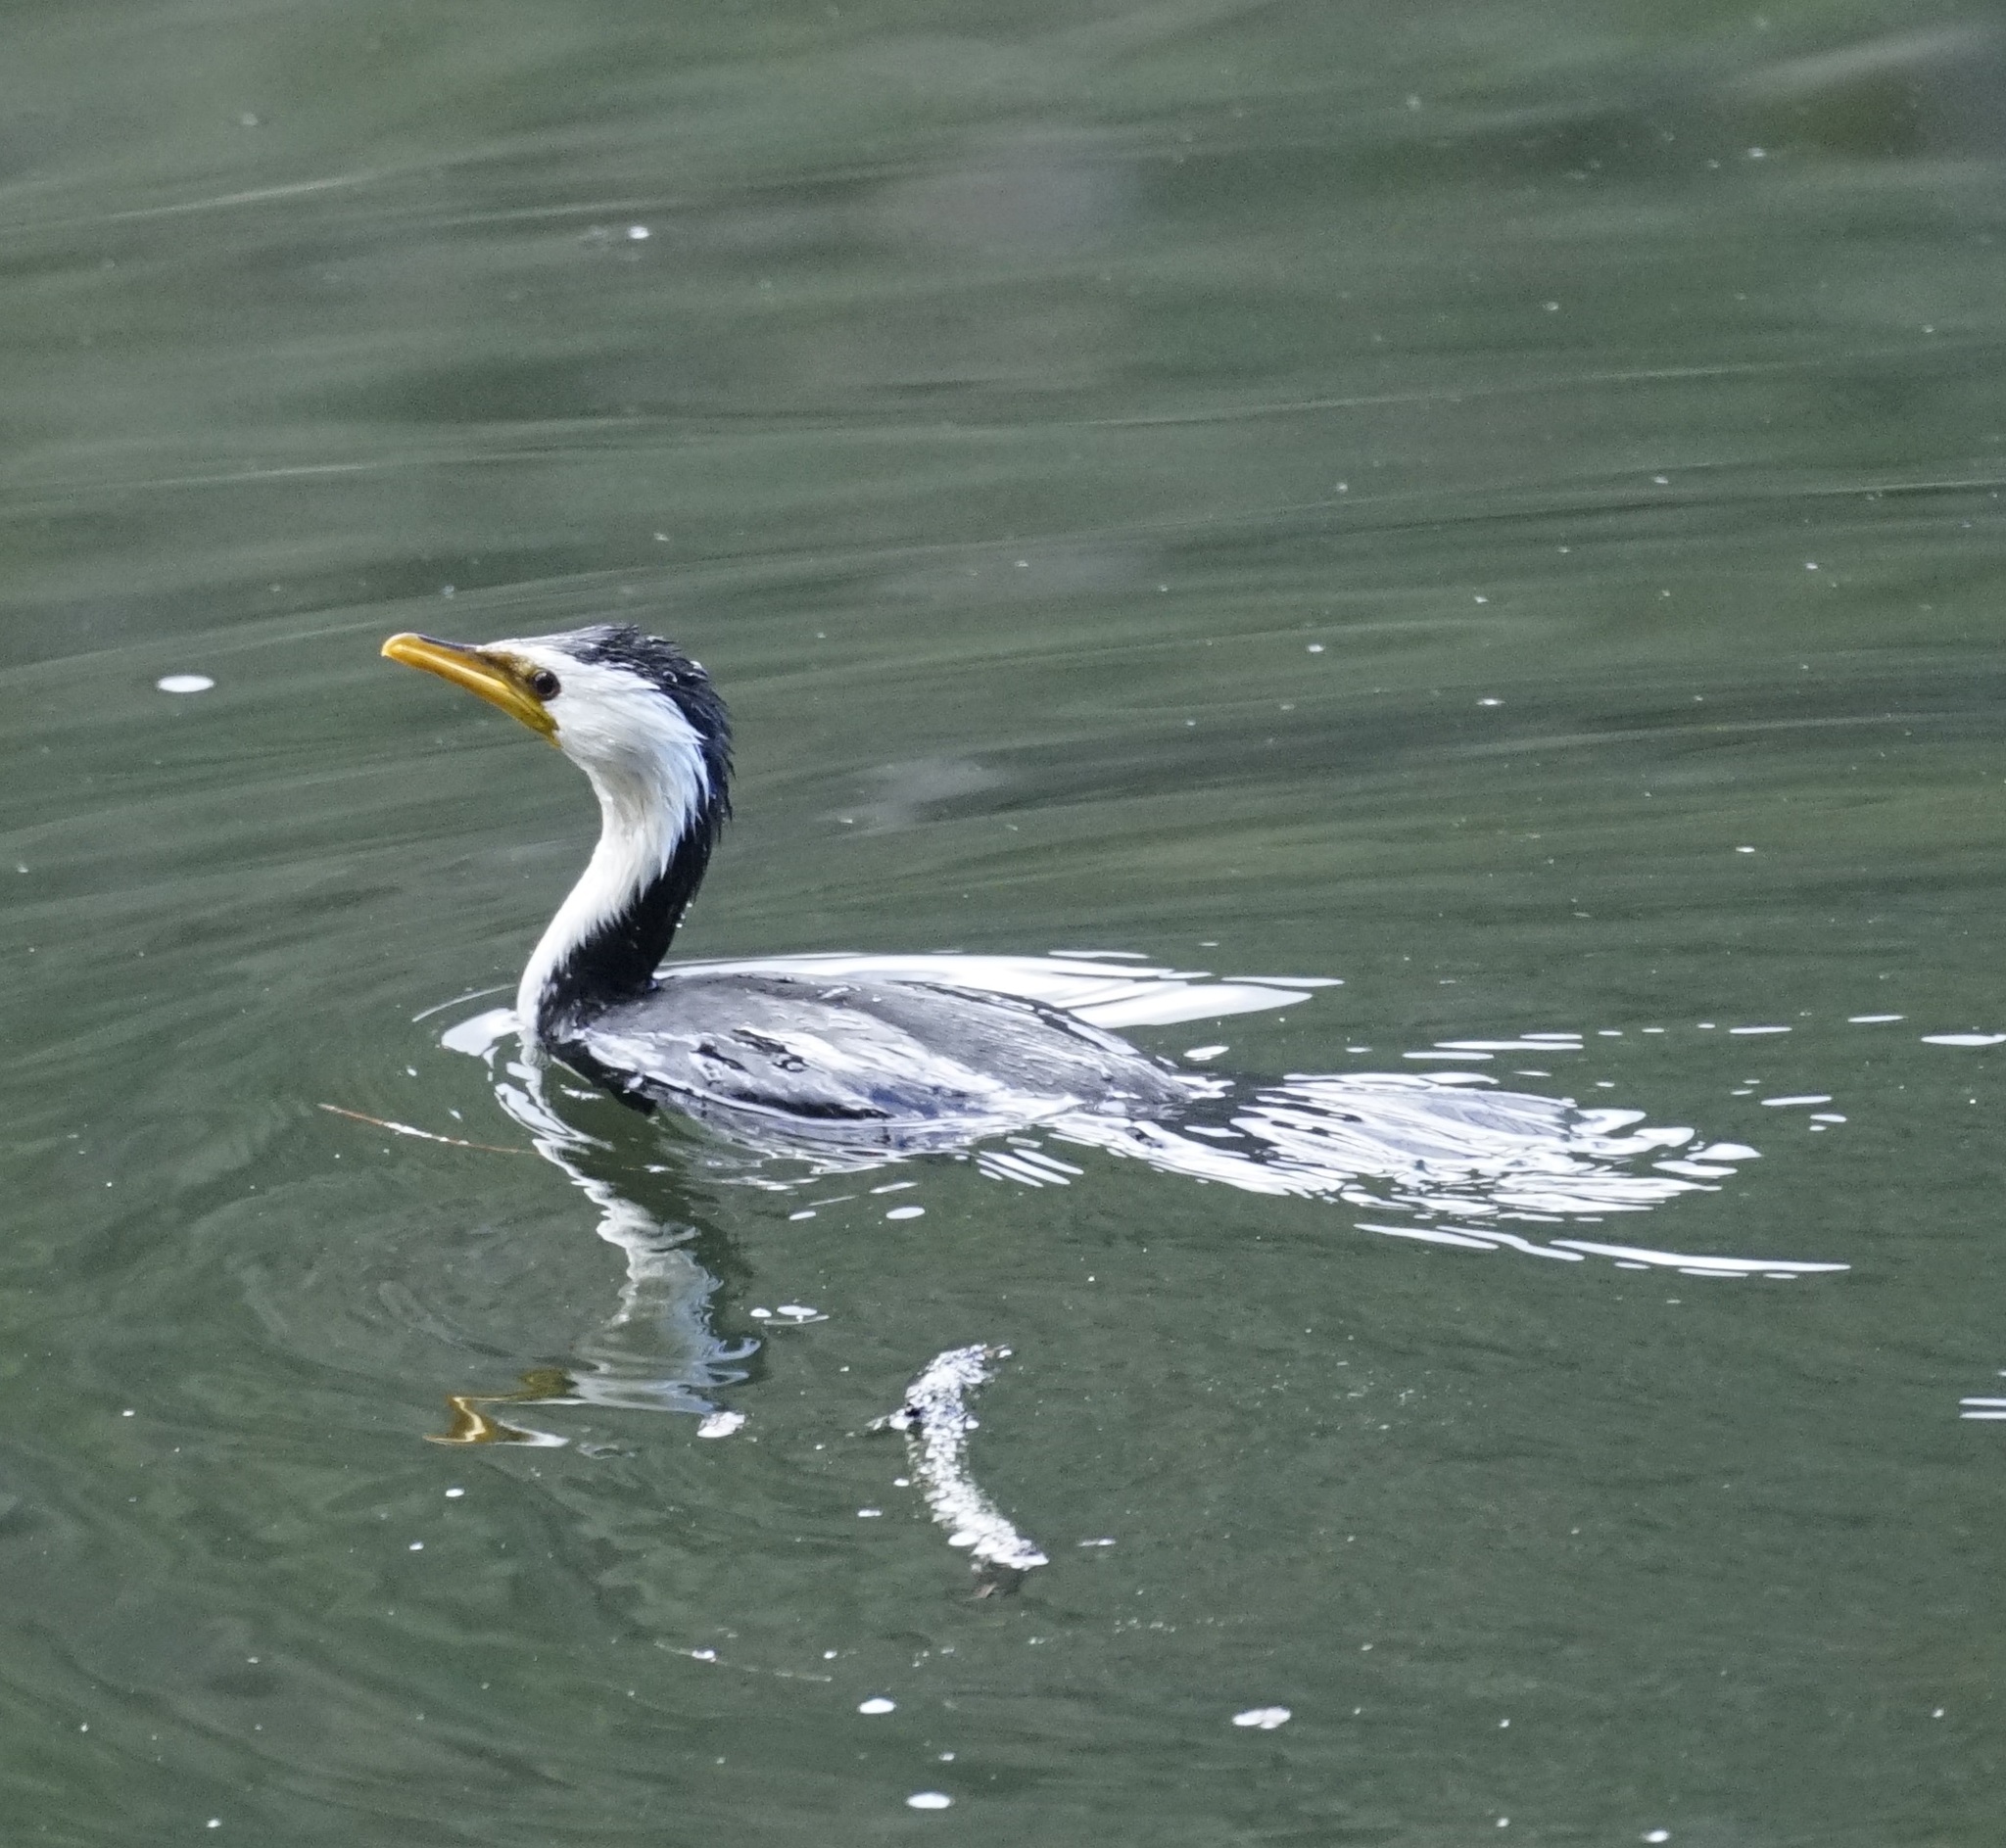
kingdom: Animalia
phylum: Chordata
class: Aves
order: Suliformes
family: Phalacrocoracidae
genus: Microcarbo
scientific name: Microcarbo melanoleucos
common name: Little pied cormorant
